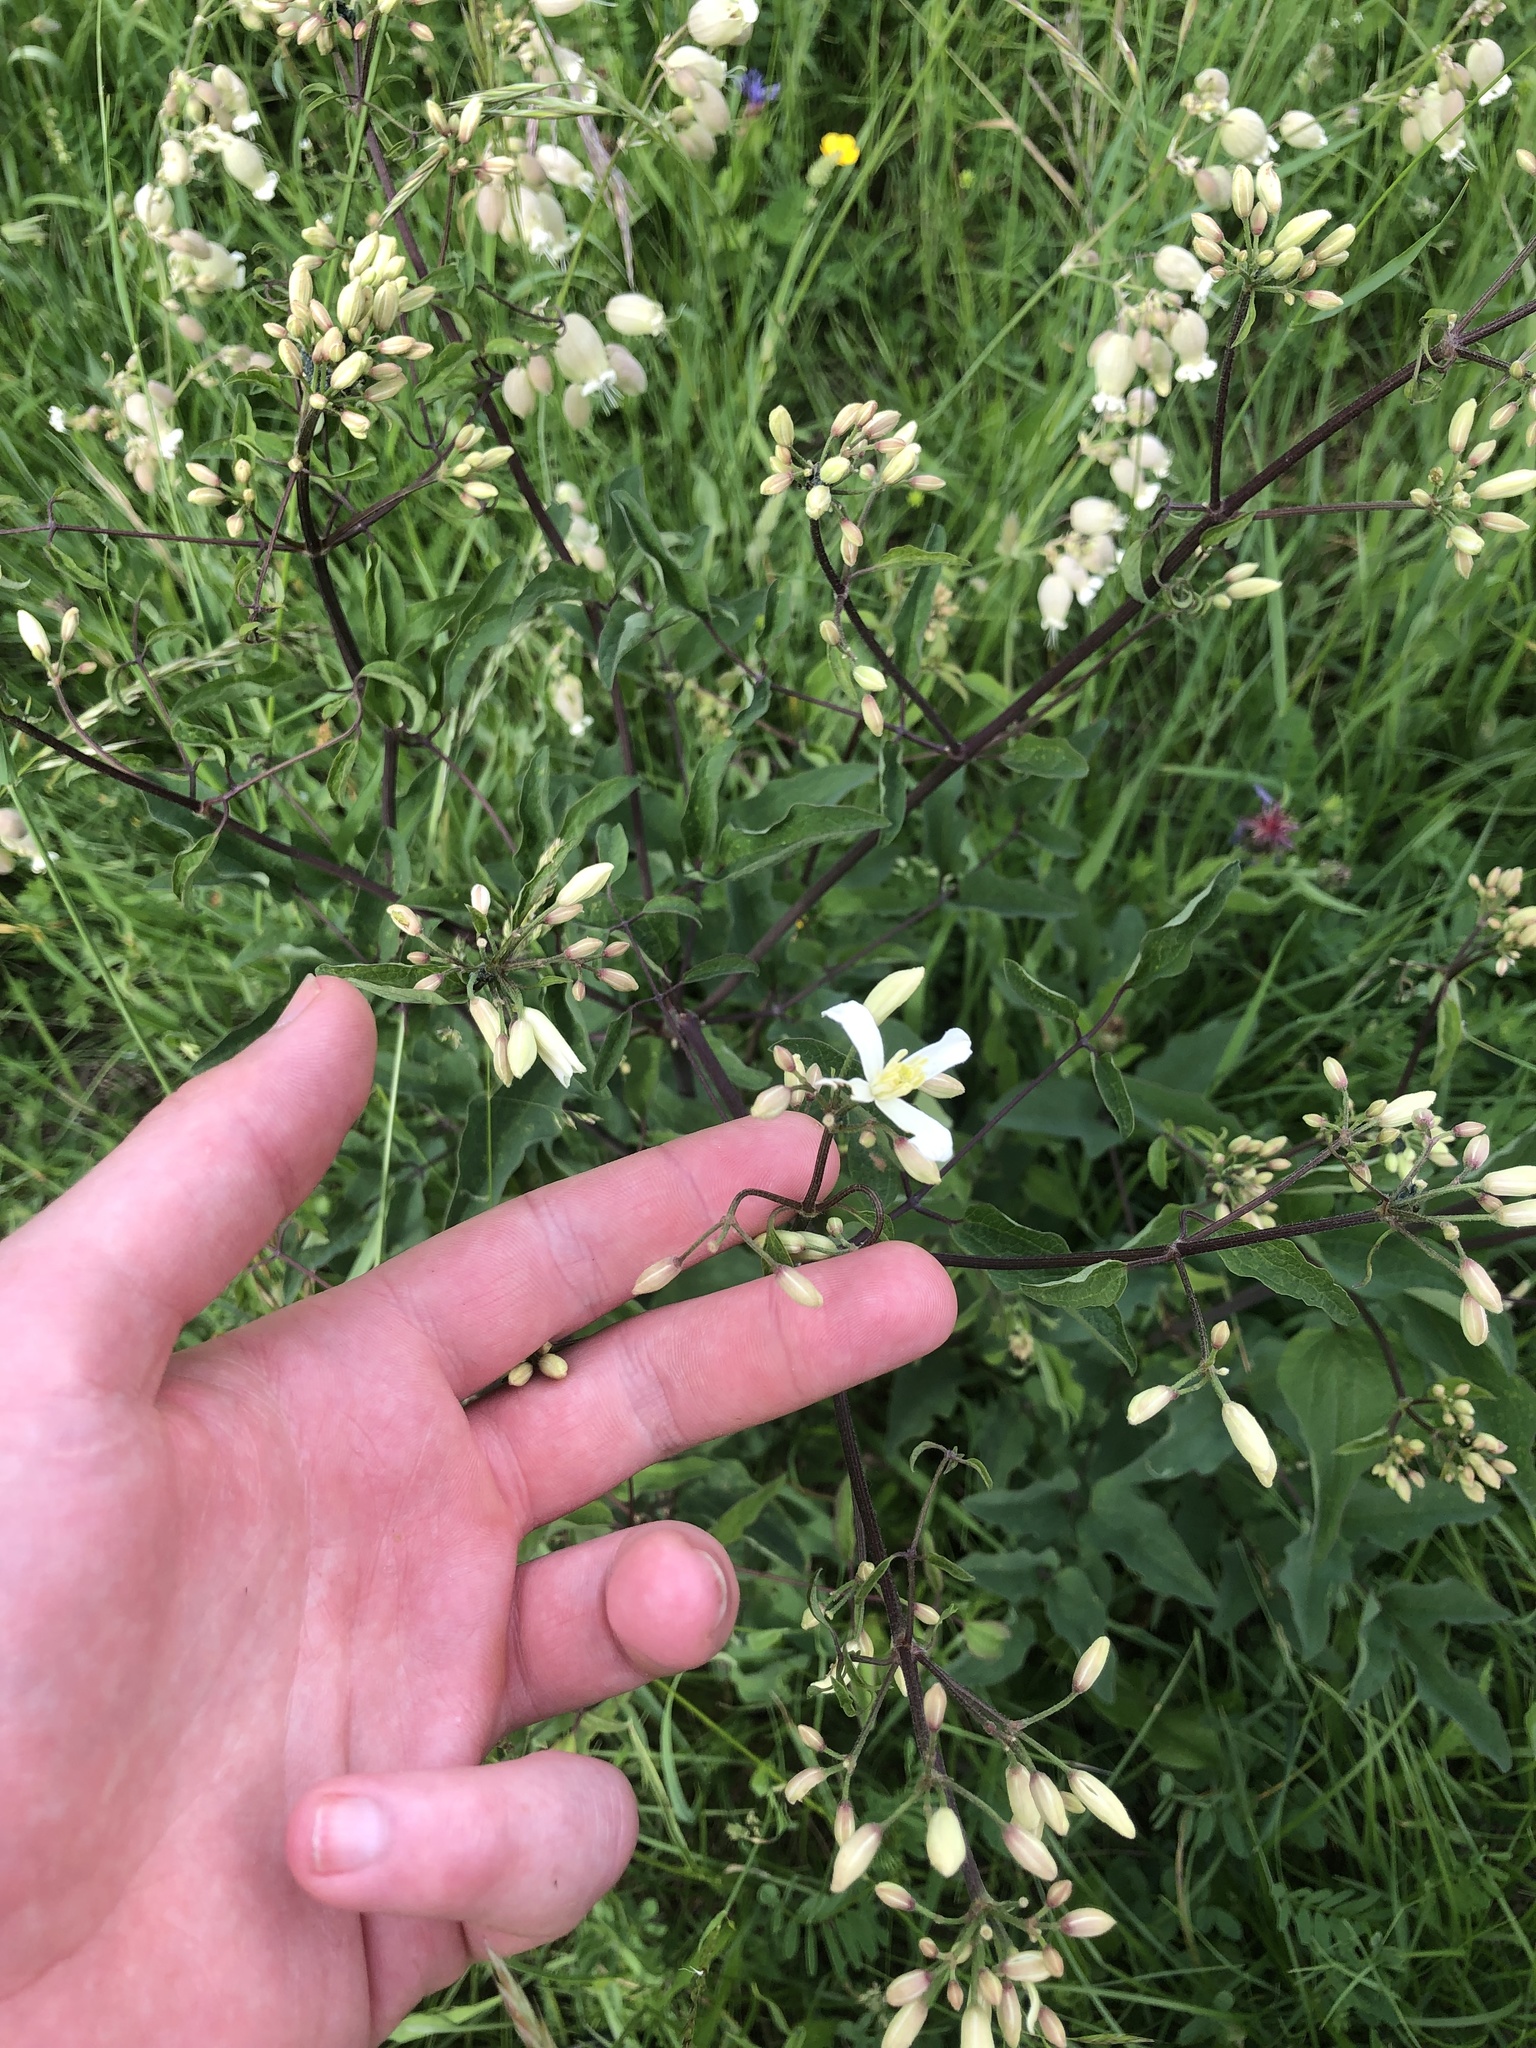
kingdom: Plantae
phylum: Tracheophyta
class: Magnoliopsida
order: Ranunculales
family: Ranunculaceae
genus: Clematis
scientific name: Clematis recta
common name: Ground clematis
